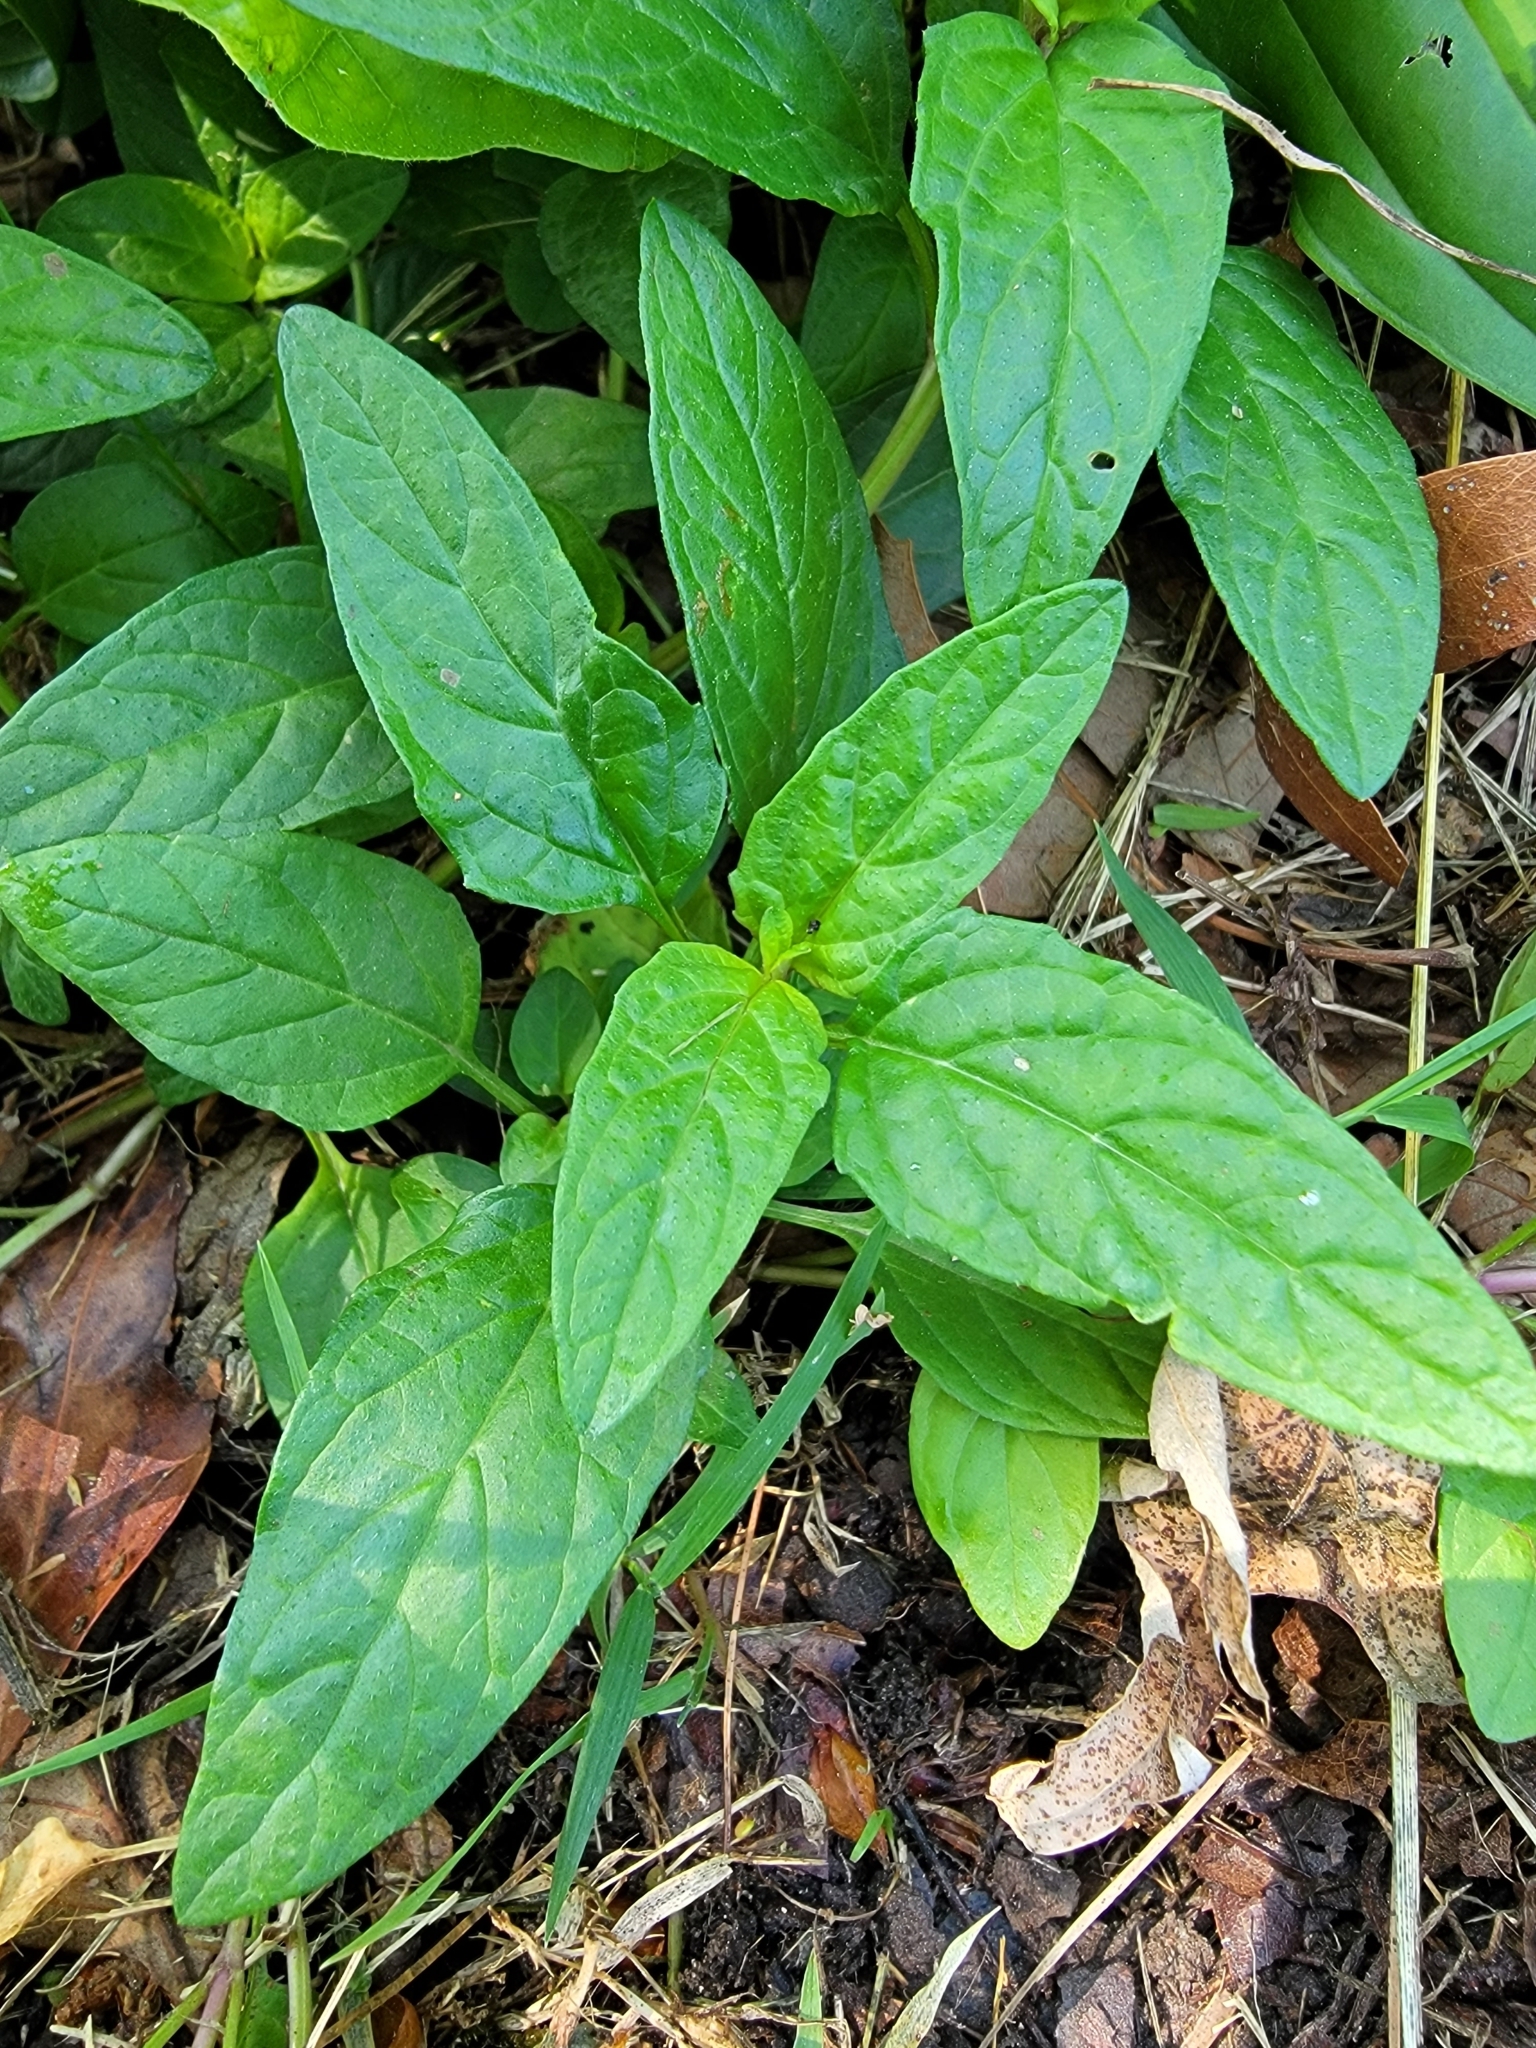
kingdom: Plantae
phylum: Tracheophyta
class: Magnoliopsida
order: Lamiales
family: Lamiaceae
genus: Prunella
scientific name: Prunella vulgaris
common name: Heal-all
